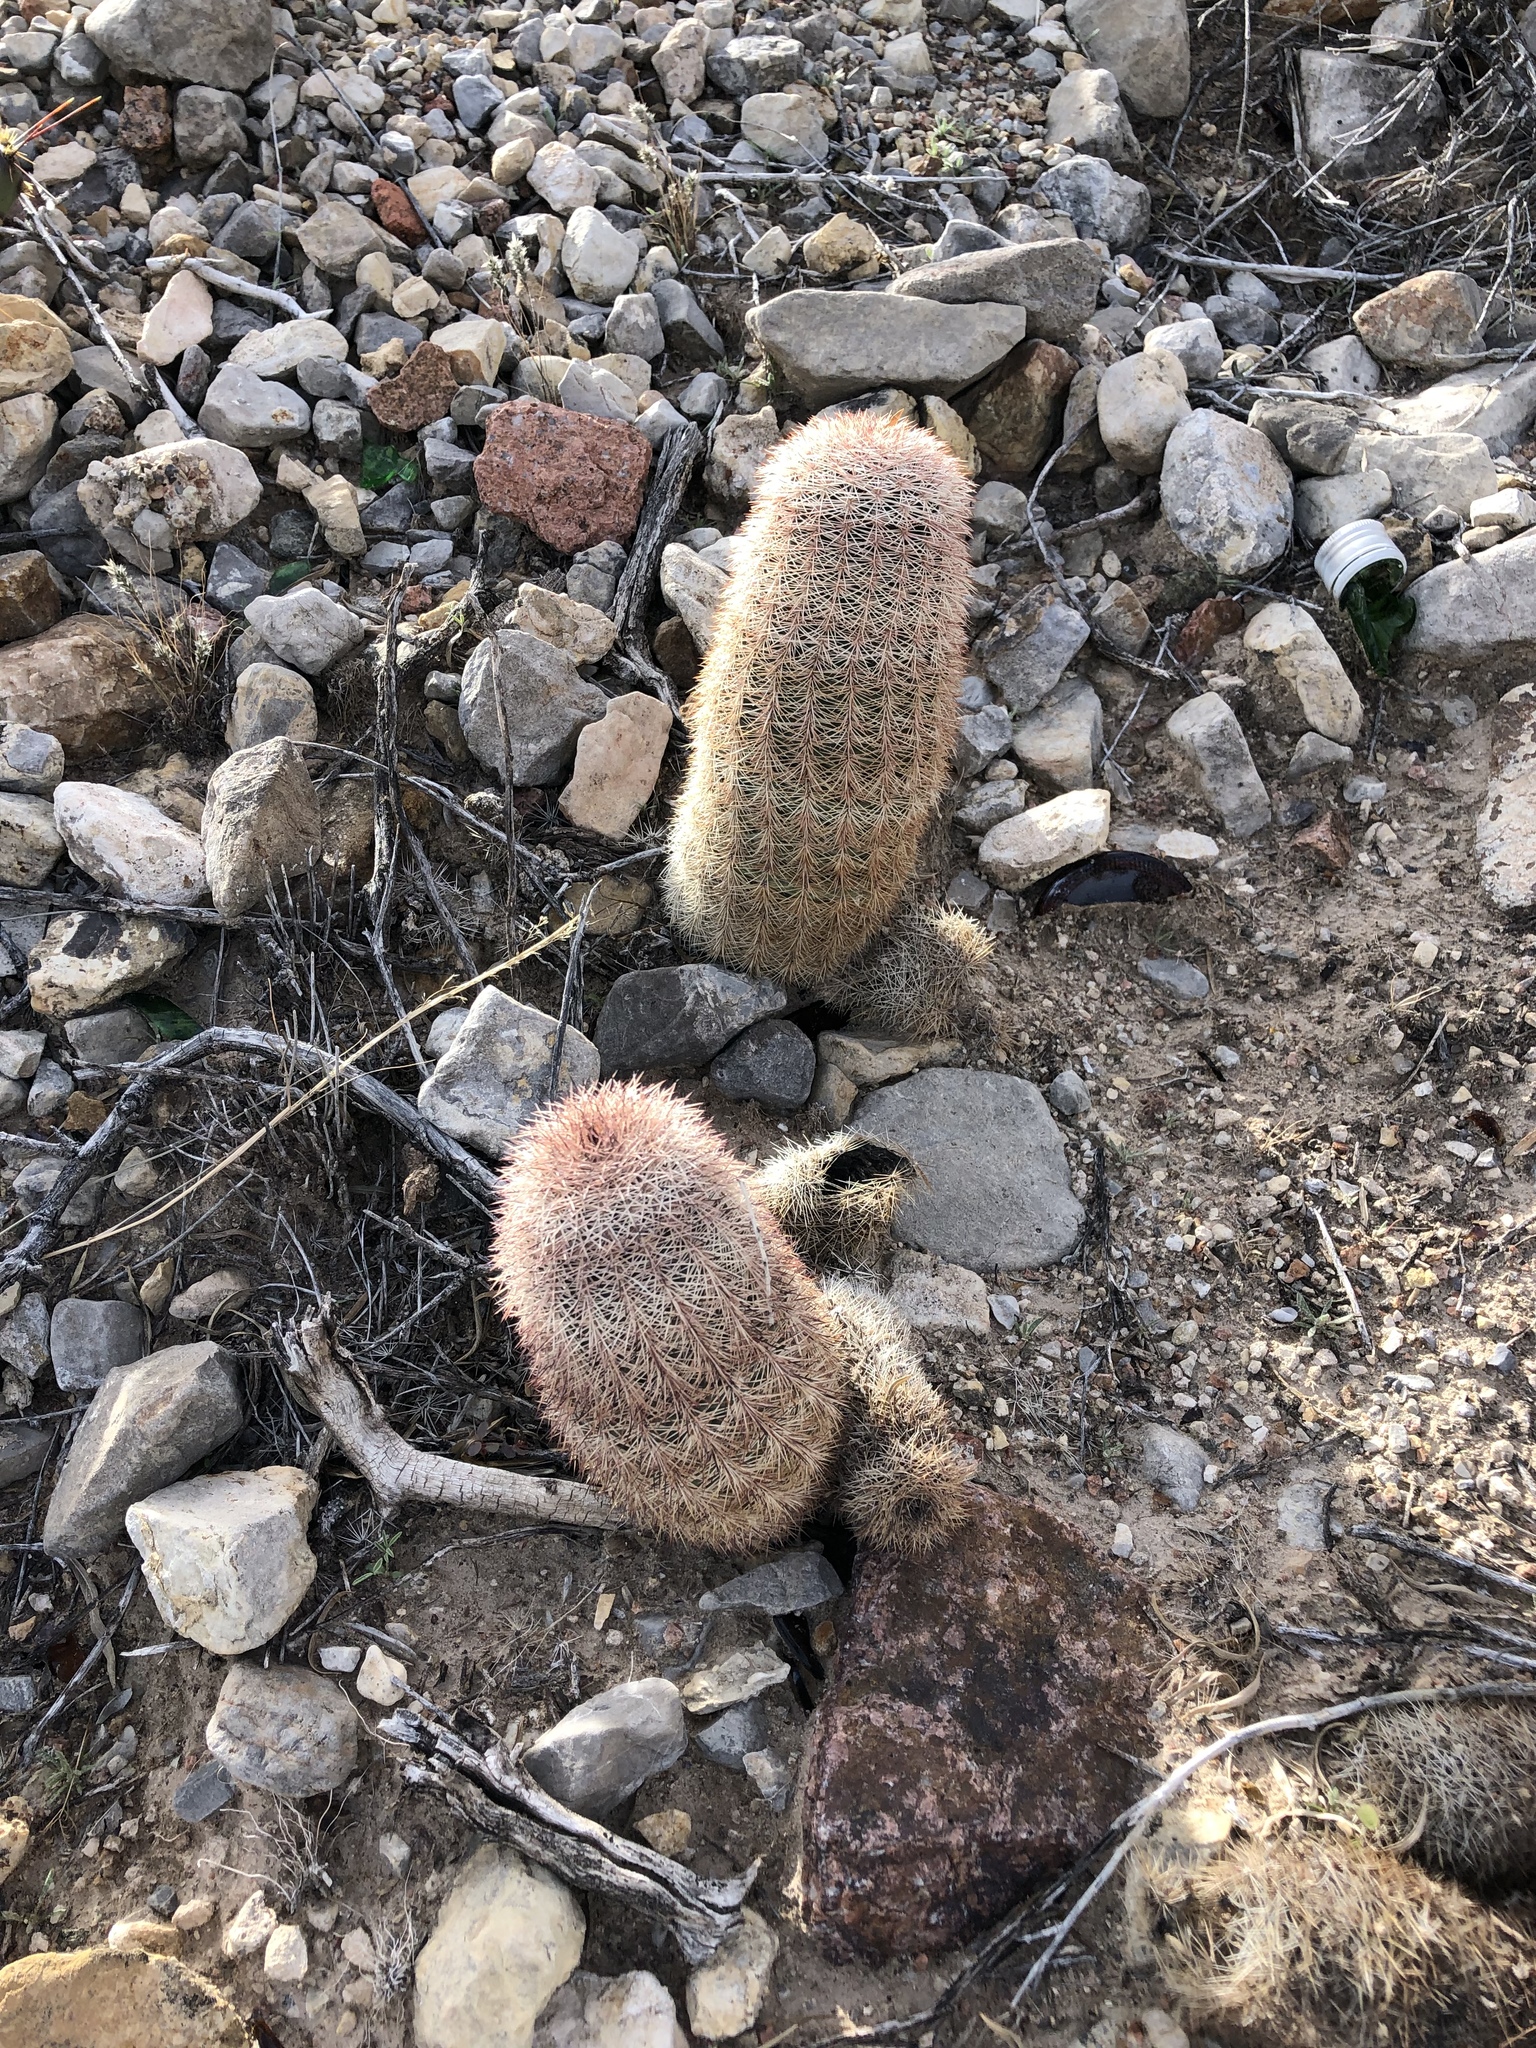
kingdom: Plantae
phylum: Tracheophyta
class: Magnoliopsida
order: Caryophyllales
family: Cactaceae
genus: Echinocereus
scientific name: Echinocereus dasyacanthus
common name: Spiny hedgehog cactus
